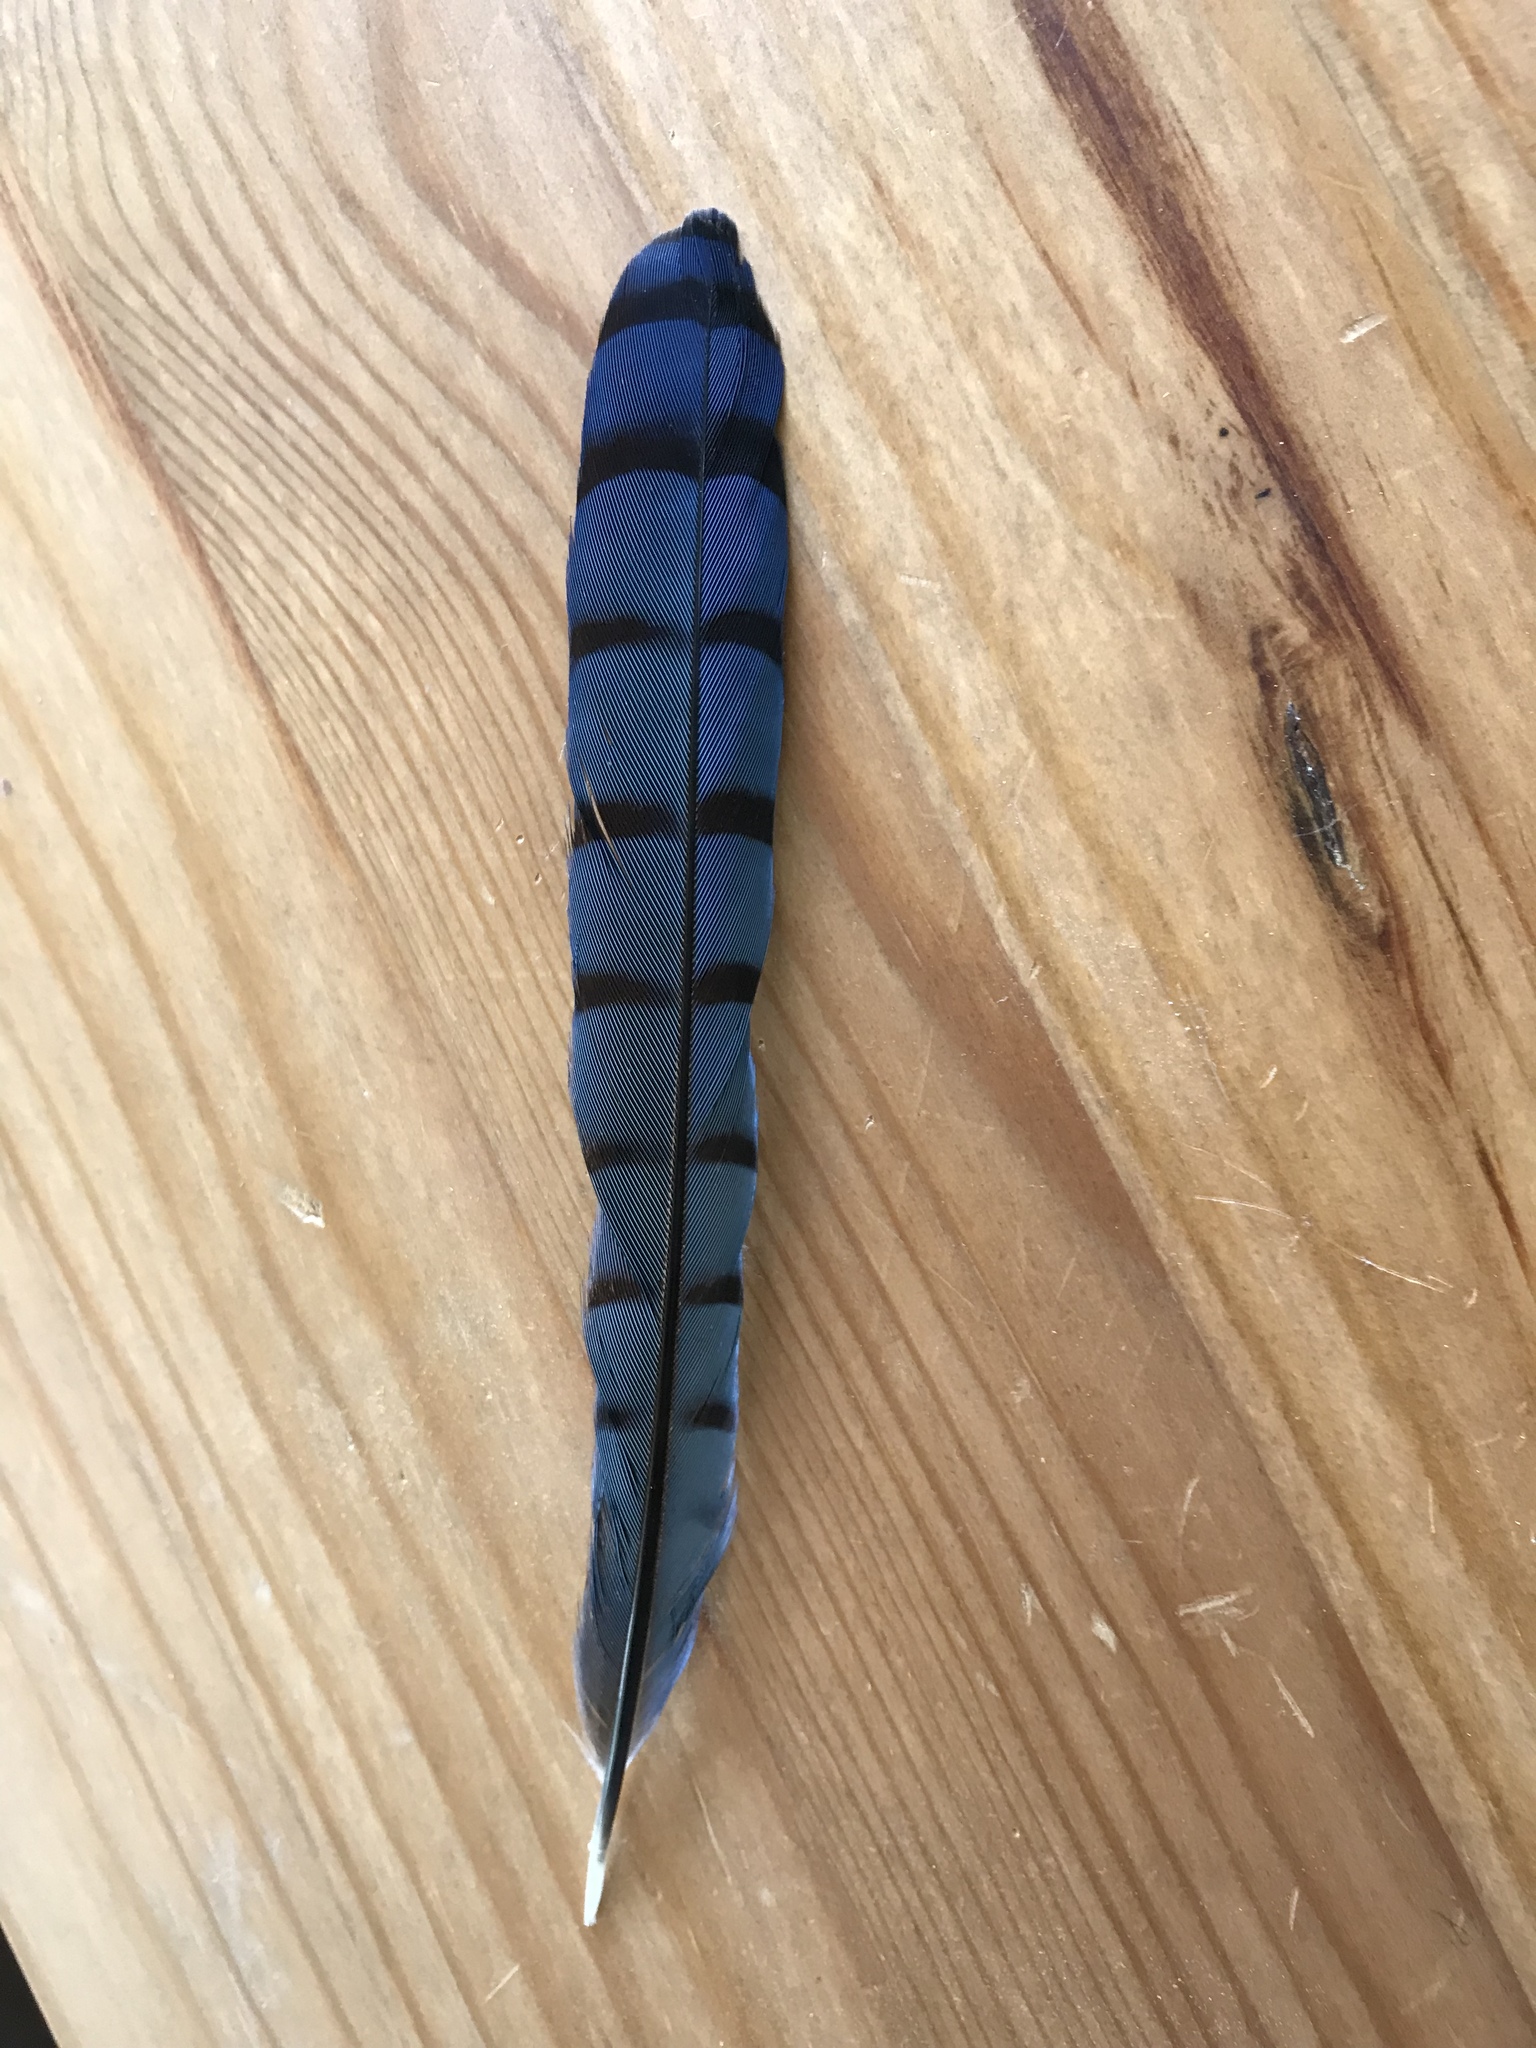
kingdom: Animalia
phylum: Chordata
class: Aves
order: Passeriformes
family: Corvidae
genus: Cyanocitta
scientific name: Cyanocitta cristata
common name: Blue jay
